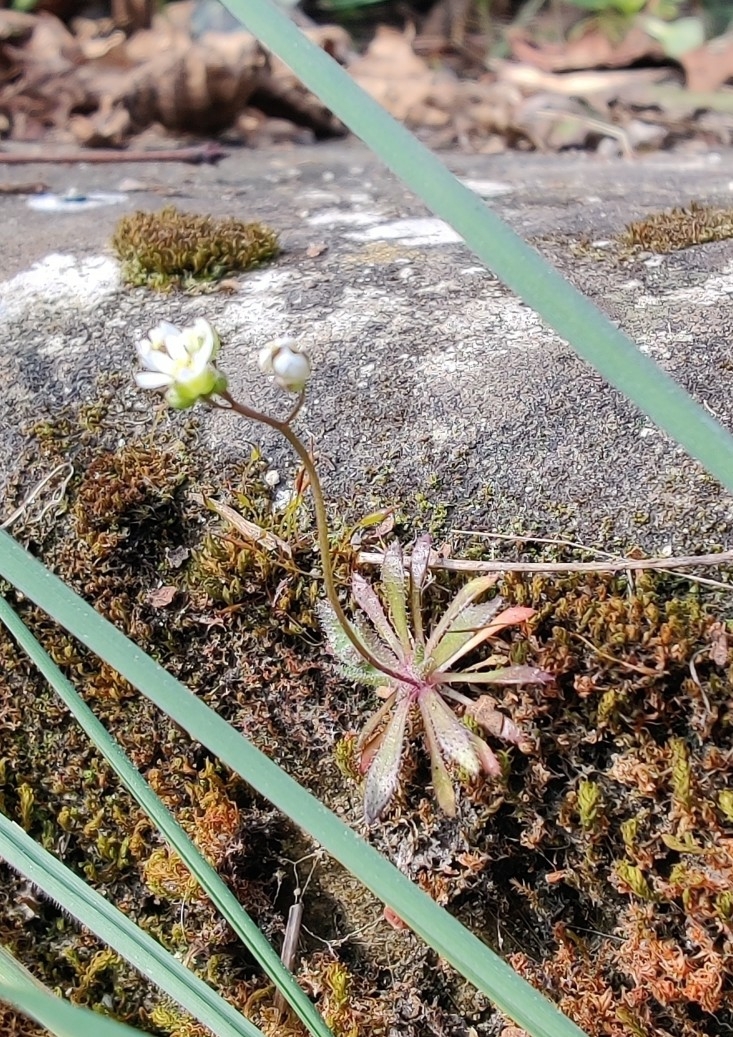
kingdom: Plantae
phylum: Tracheophyta
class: Magnoliopsida
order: Brassicales
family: Brassicaceae
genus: Draba
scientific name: Draba verna
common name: Spring draba
